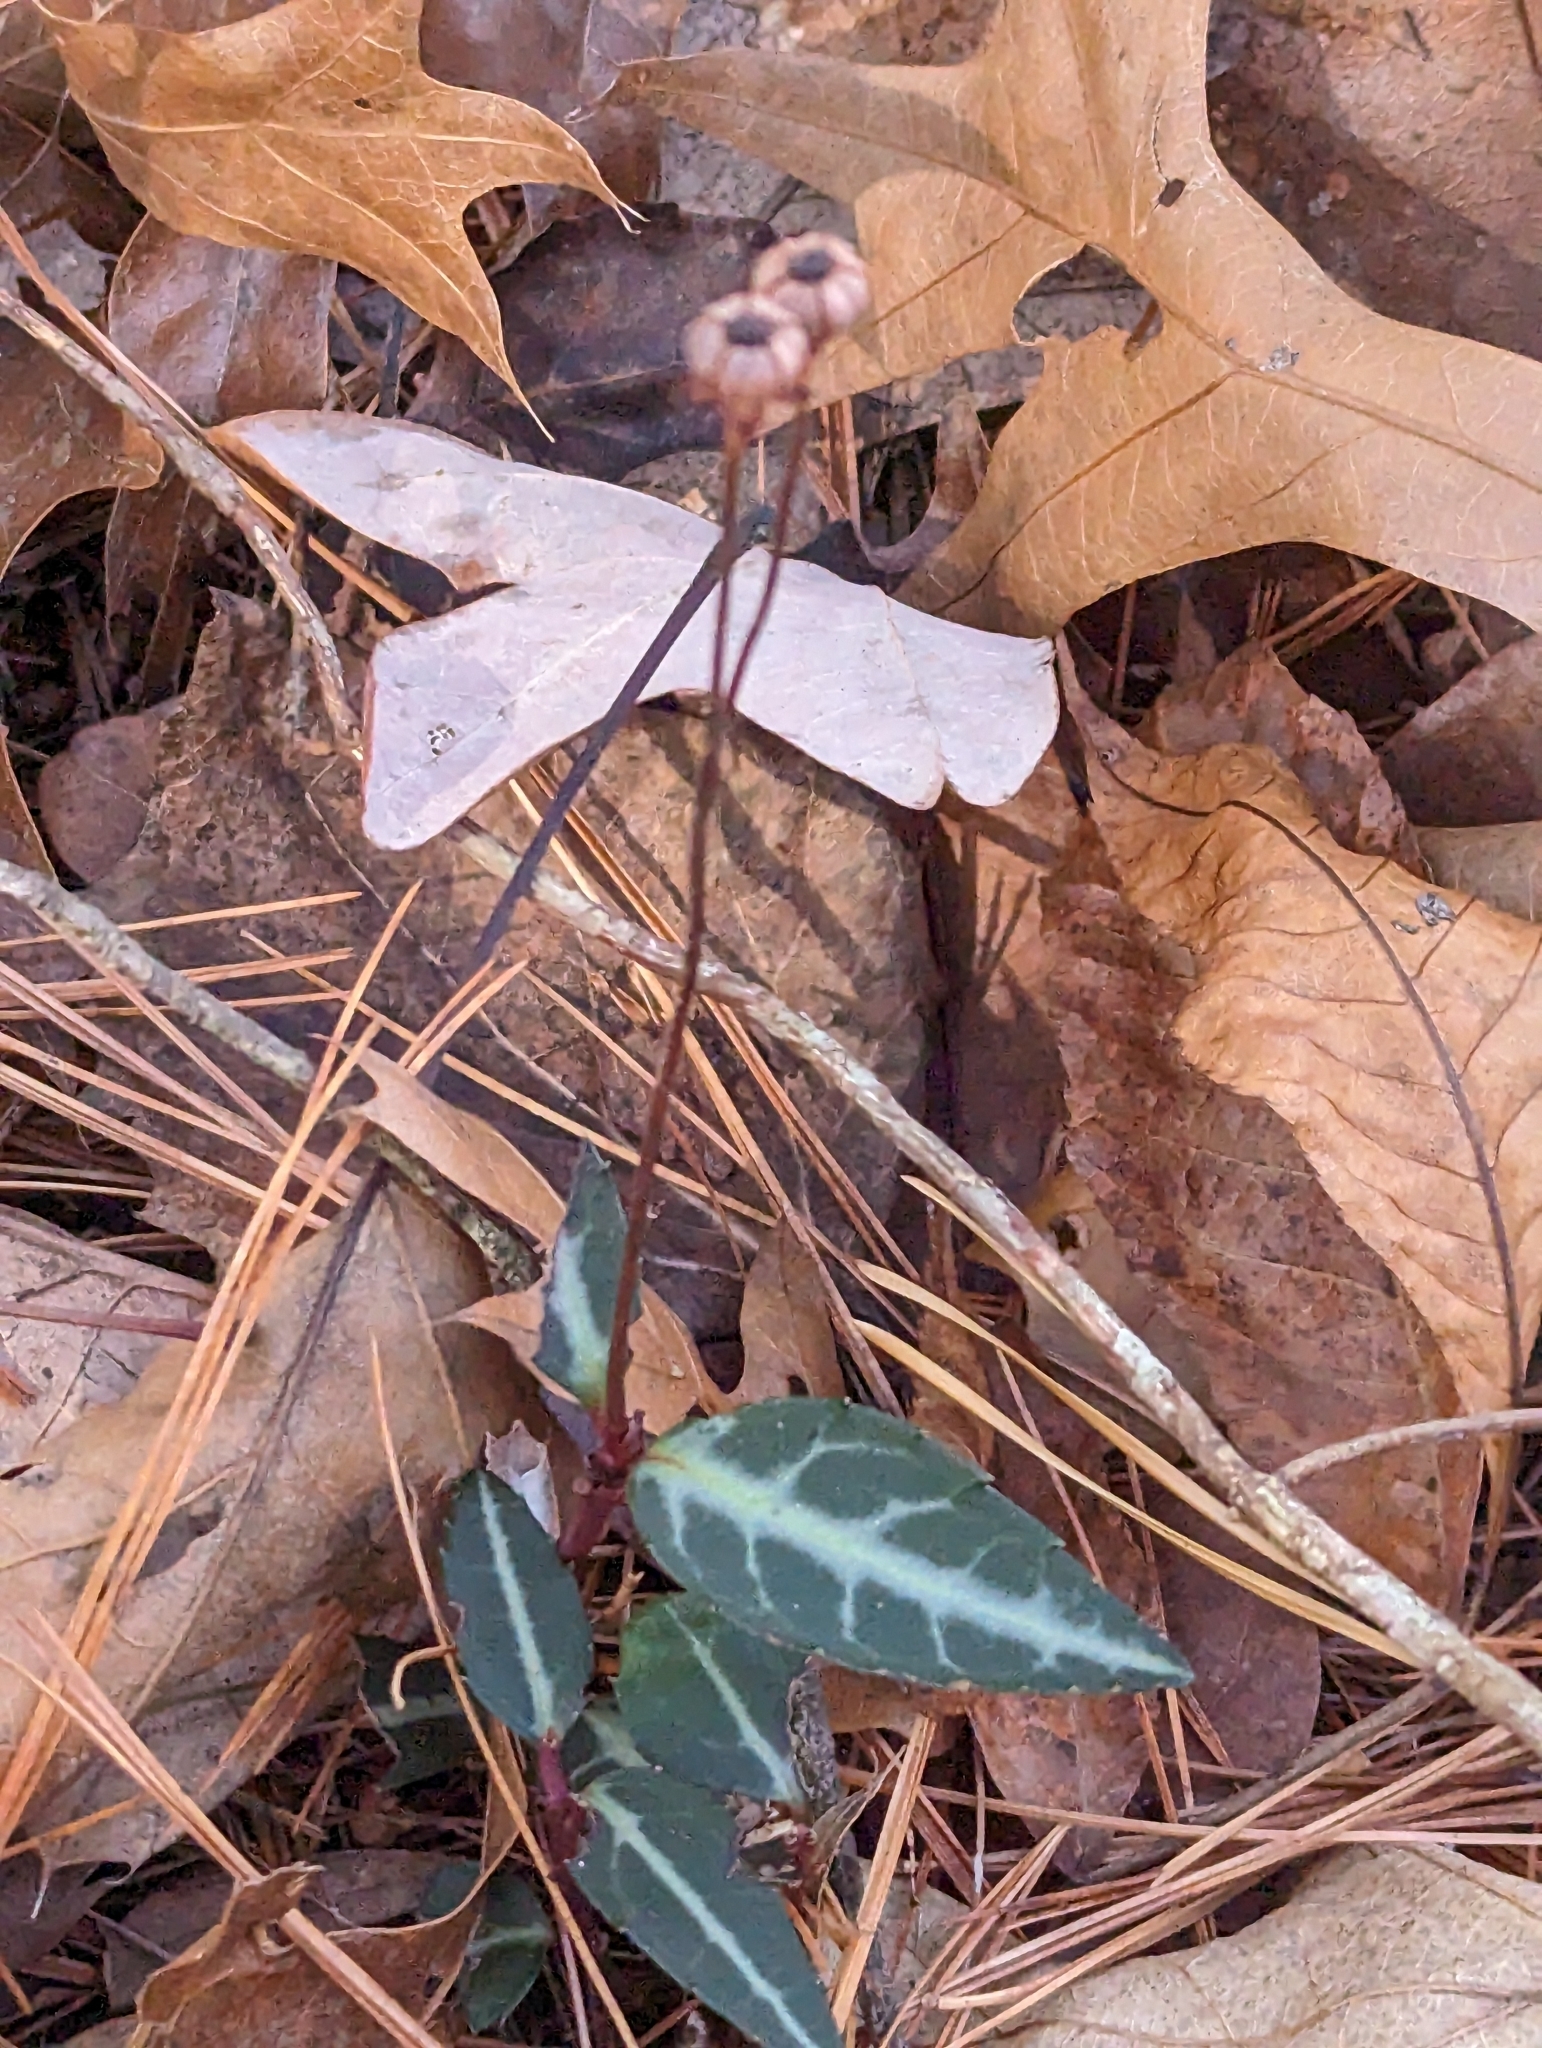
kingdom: Plantae
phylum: Tracheophyta
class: Magnoliopsida
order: Ericales
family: Ericaceae
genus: Chimaphila
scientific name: Chimaphila maculata
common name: Spotted pipsissewa
